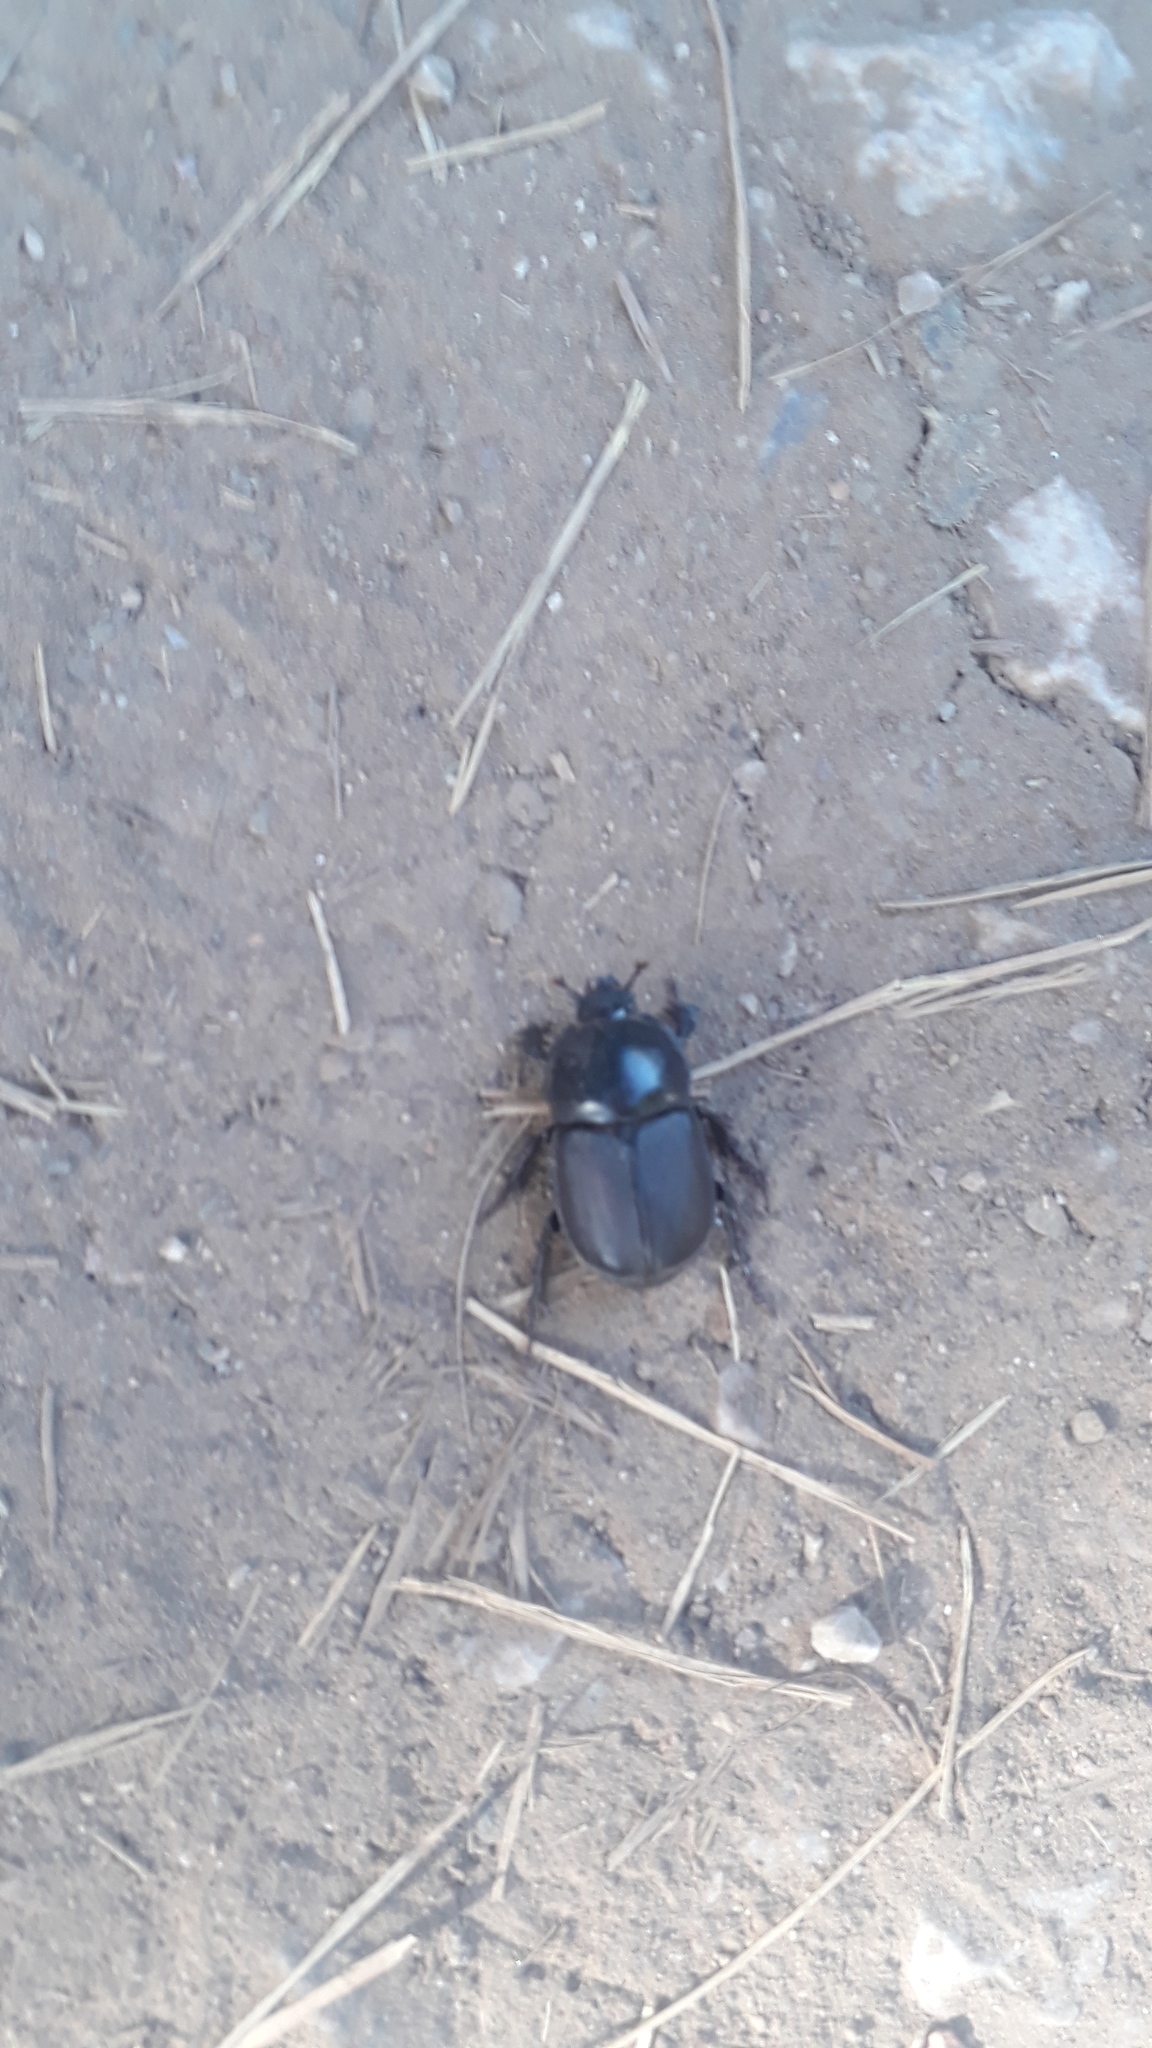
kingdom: Animalia
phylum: Arthropoda
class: Insecta
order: Coleoptera
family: Scarabaeidae
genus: Diloboderus
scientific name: Diloboderus abderus
